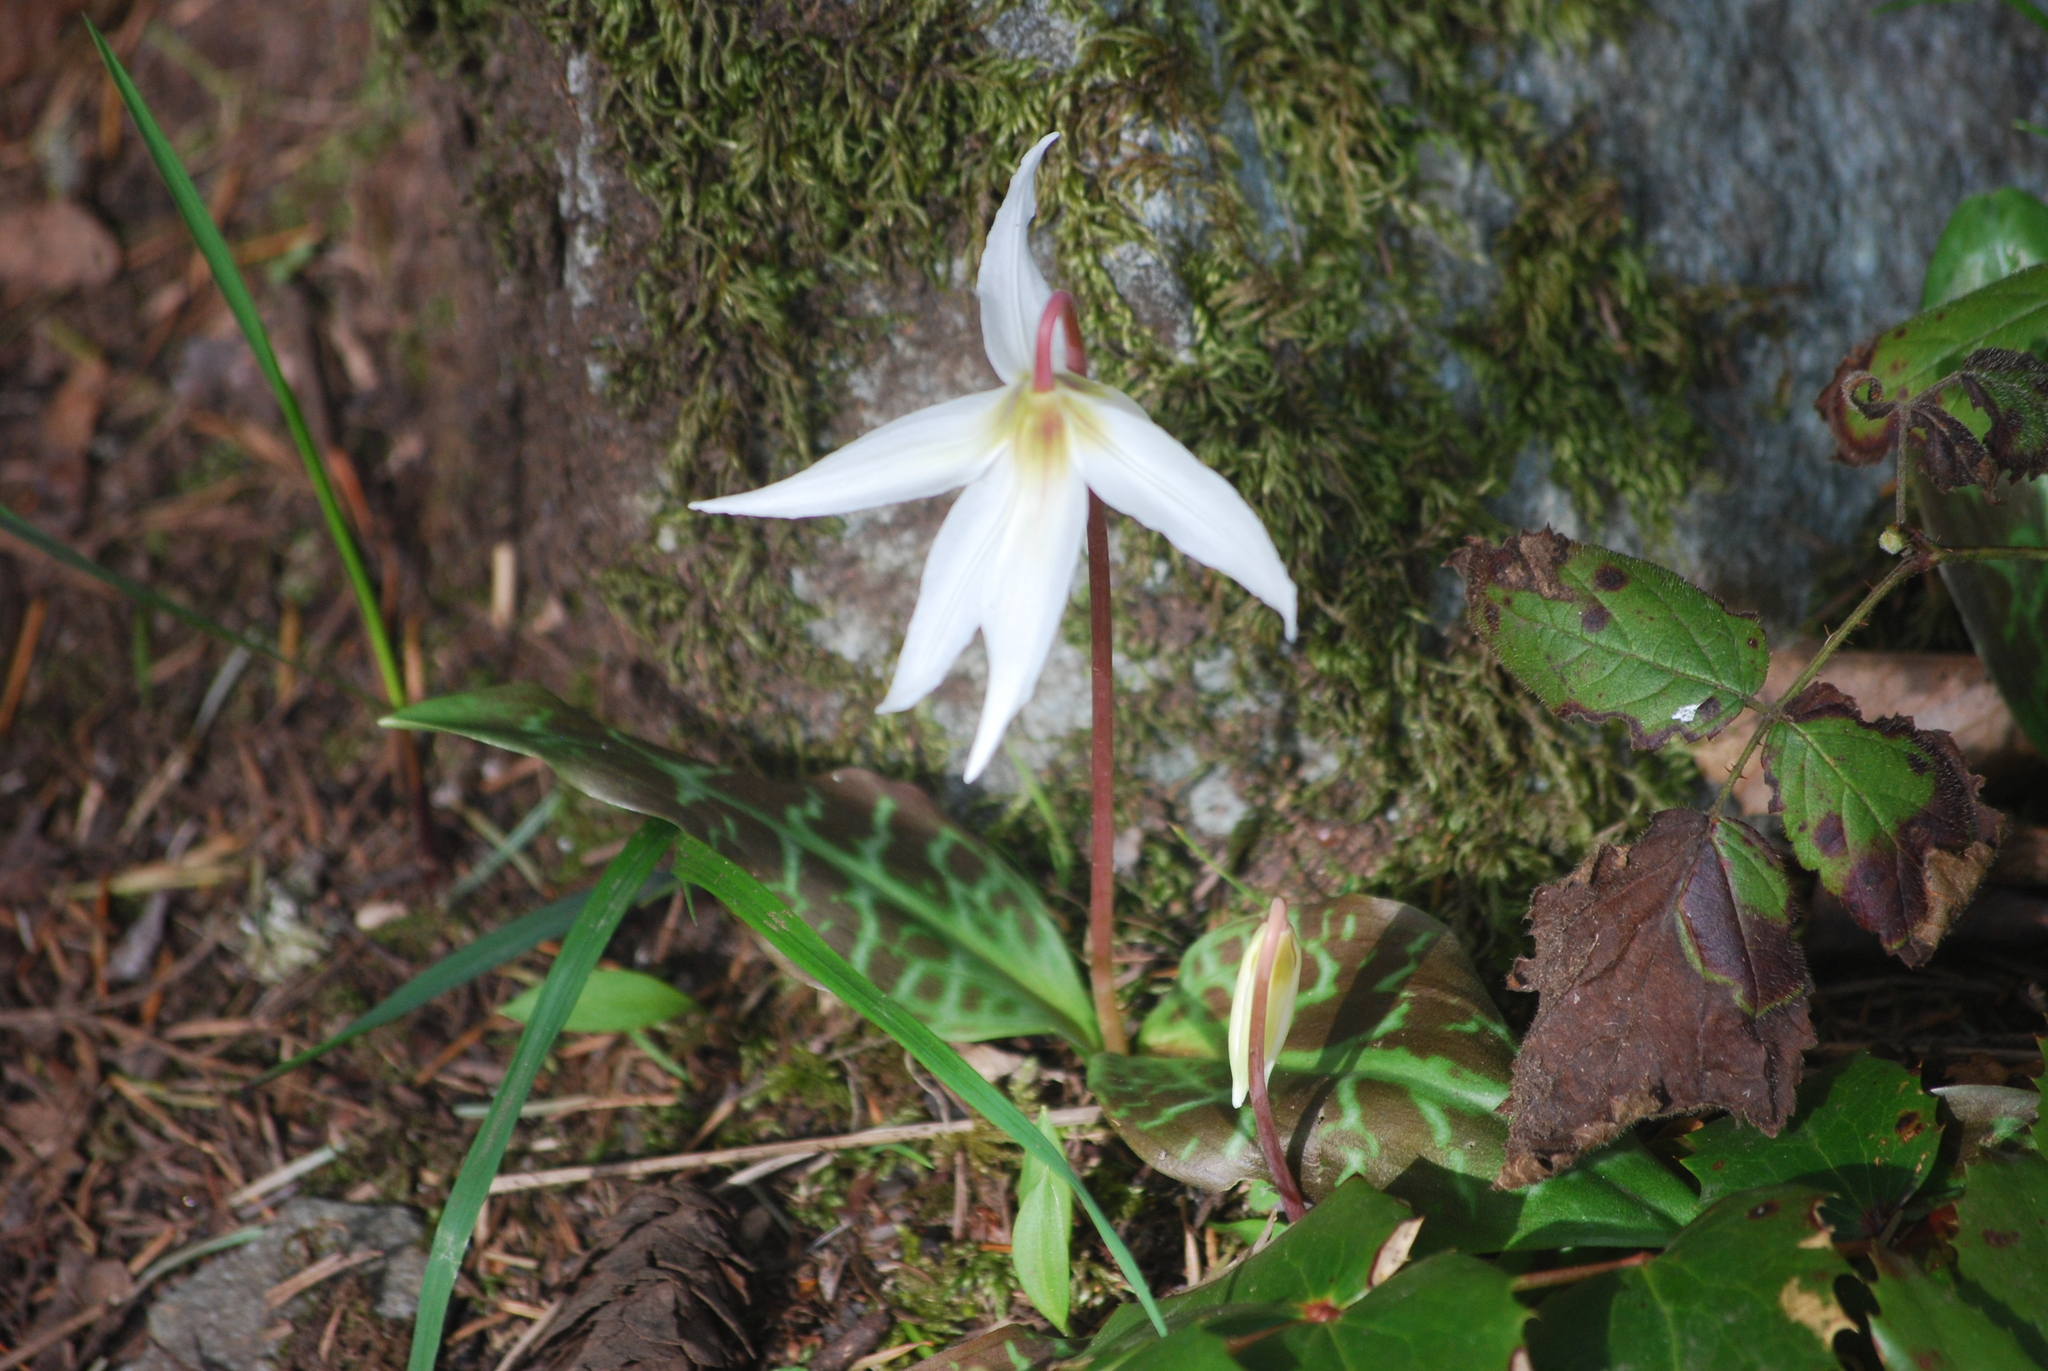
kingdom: Plantae
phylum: Tracheophyta
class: Liliopsida
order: Liliales
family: Liliaceae
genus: Erythronium
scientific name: Erythronium oregonum
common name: Giant adder's-tongue
